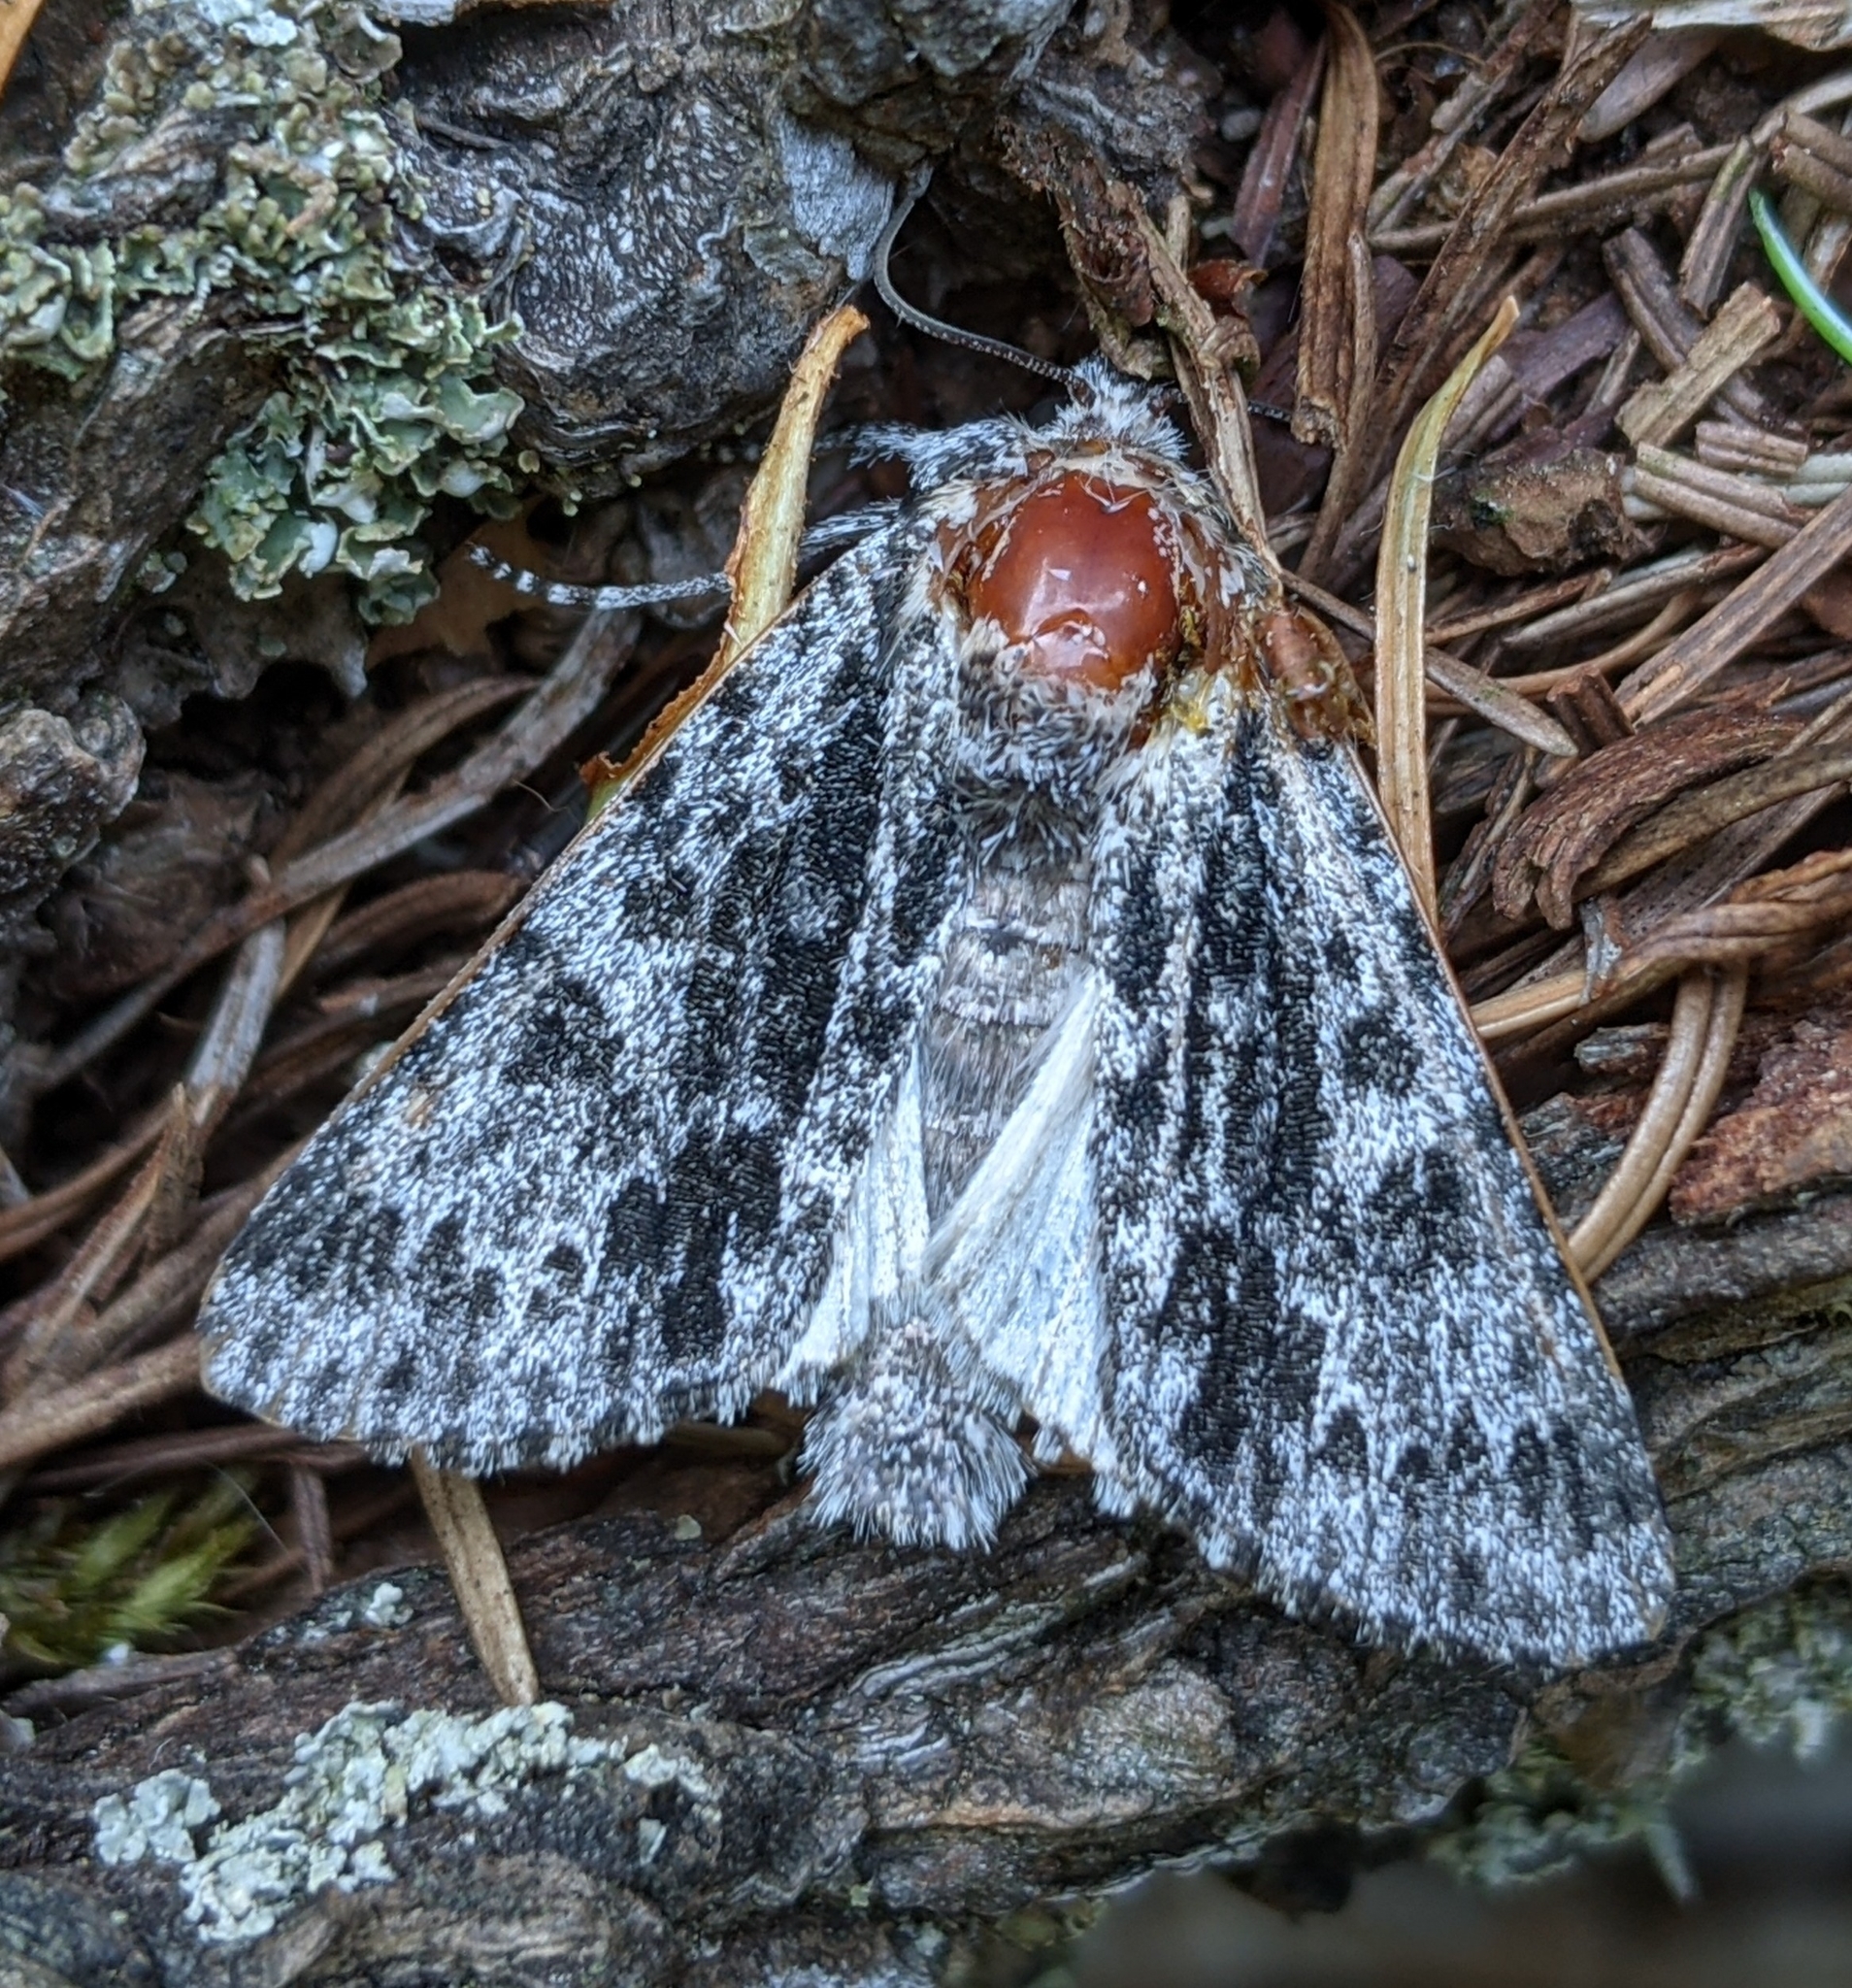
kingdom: Animalia
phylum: Arthropoda
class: Insecta
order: Lepidoptera
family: Noctuidae
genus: Acronicta
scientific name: Acronicta perdita
